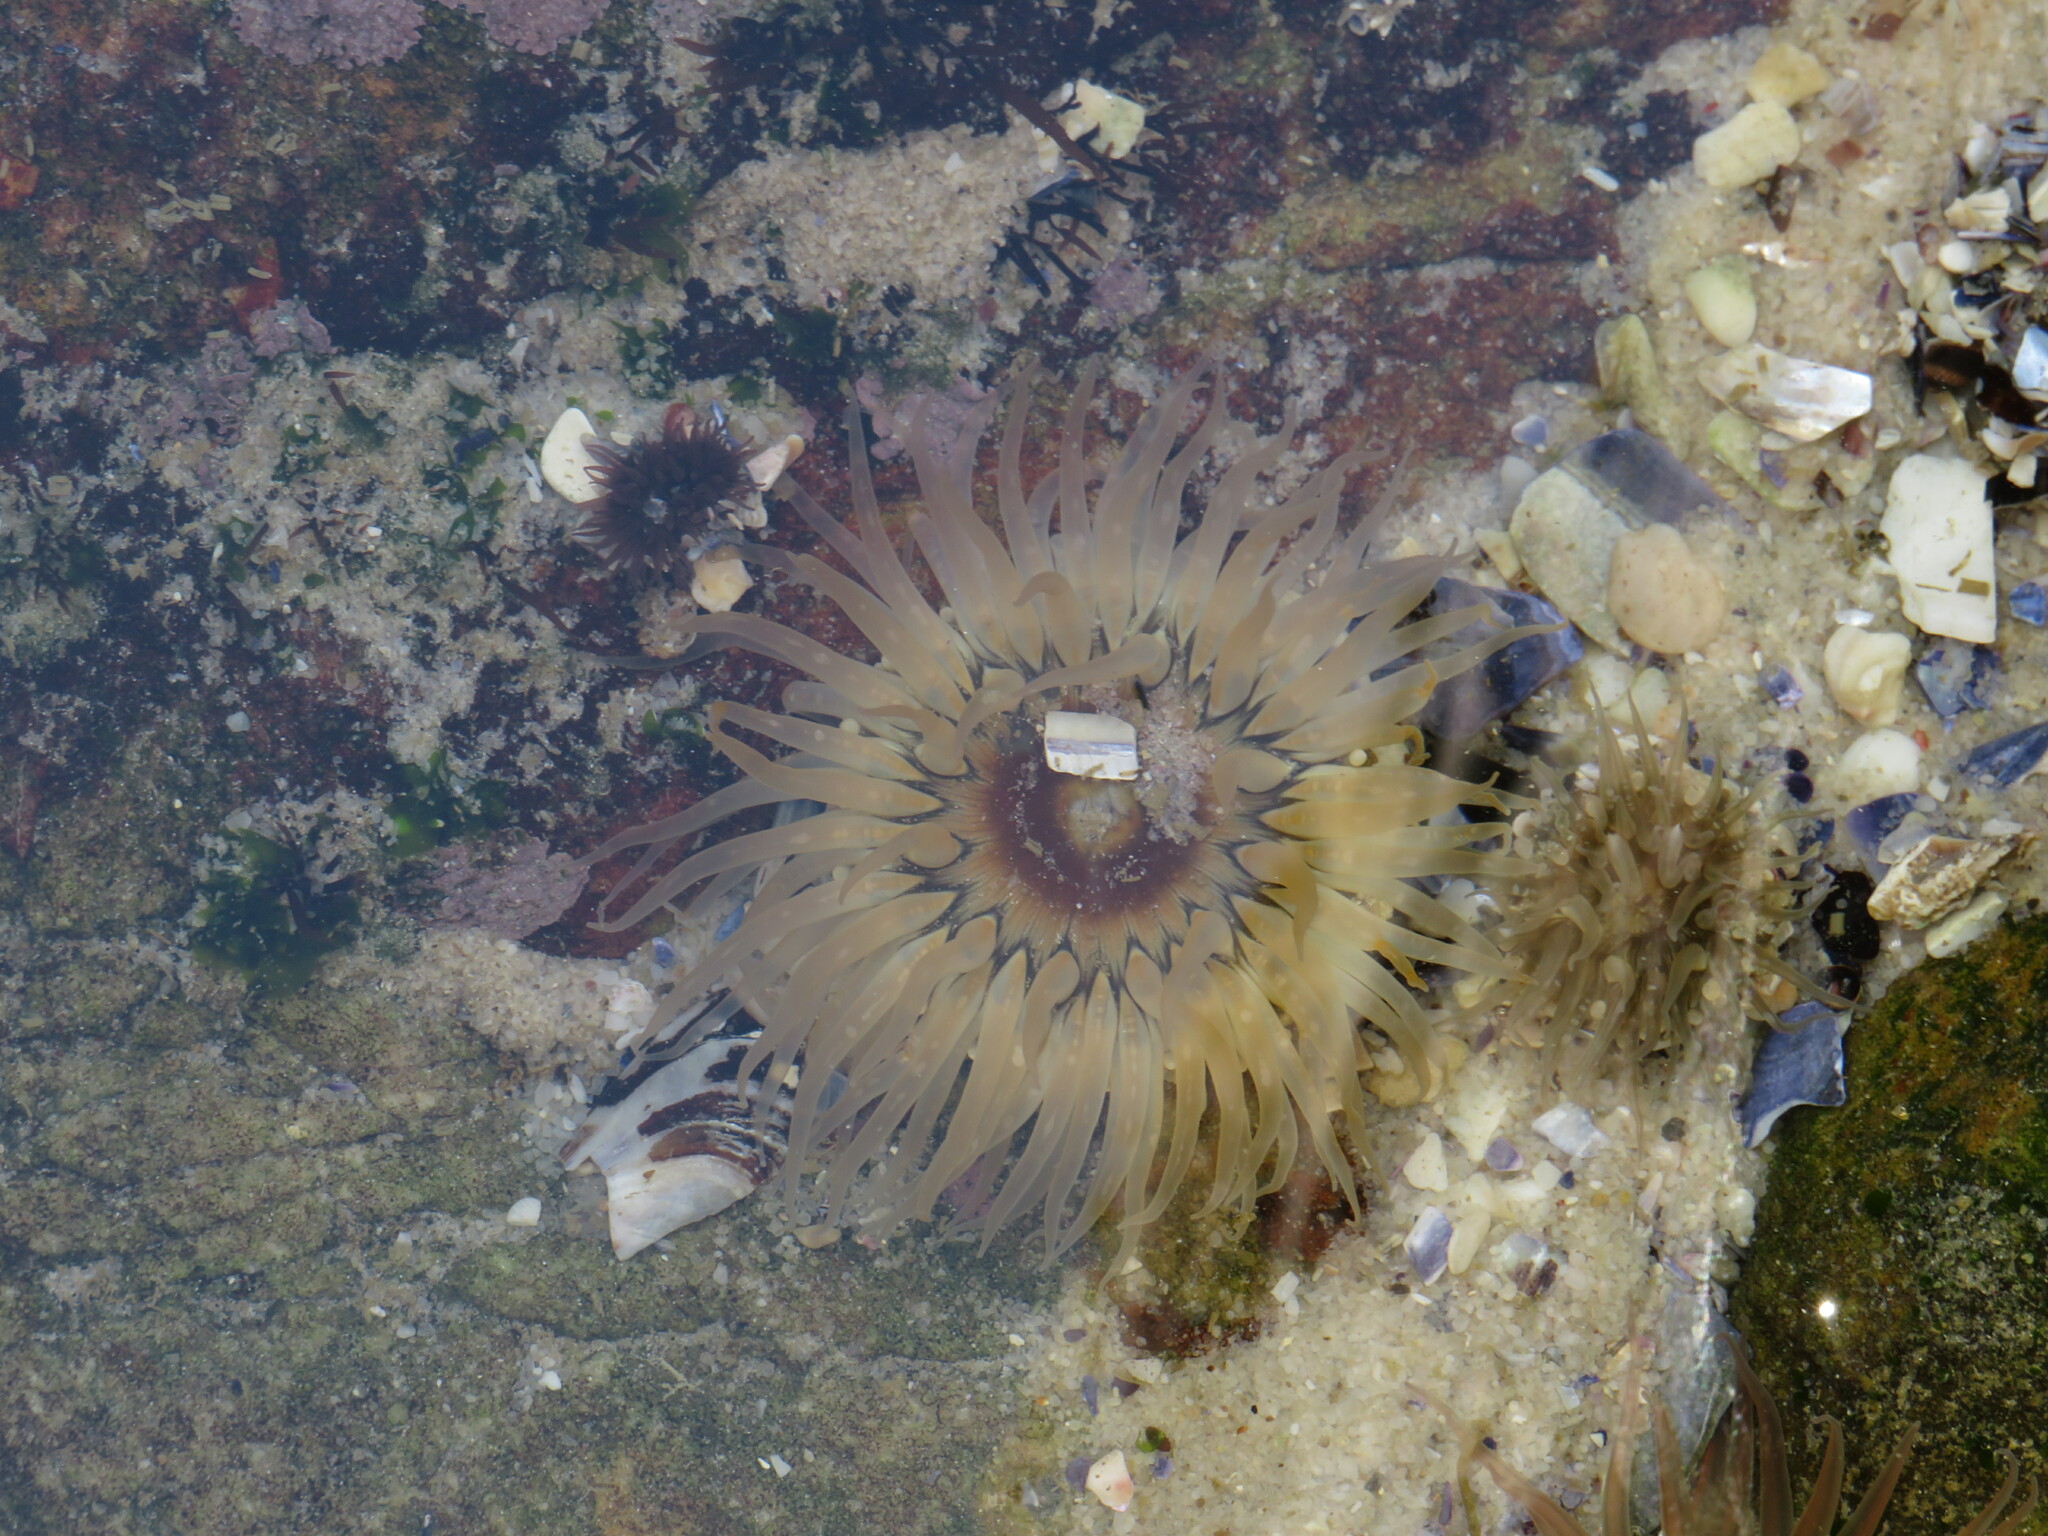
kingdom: Animalia
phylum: Cnidaria
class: Anthozoa
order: Actiniaria
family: Actiniidae
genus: Anthopleura
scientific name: Anthopleura michaelseni
